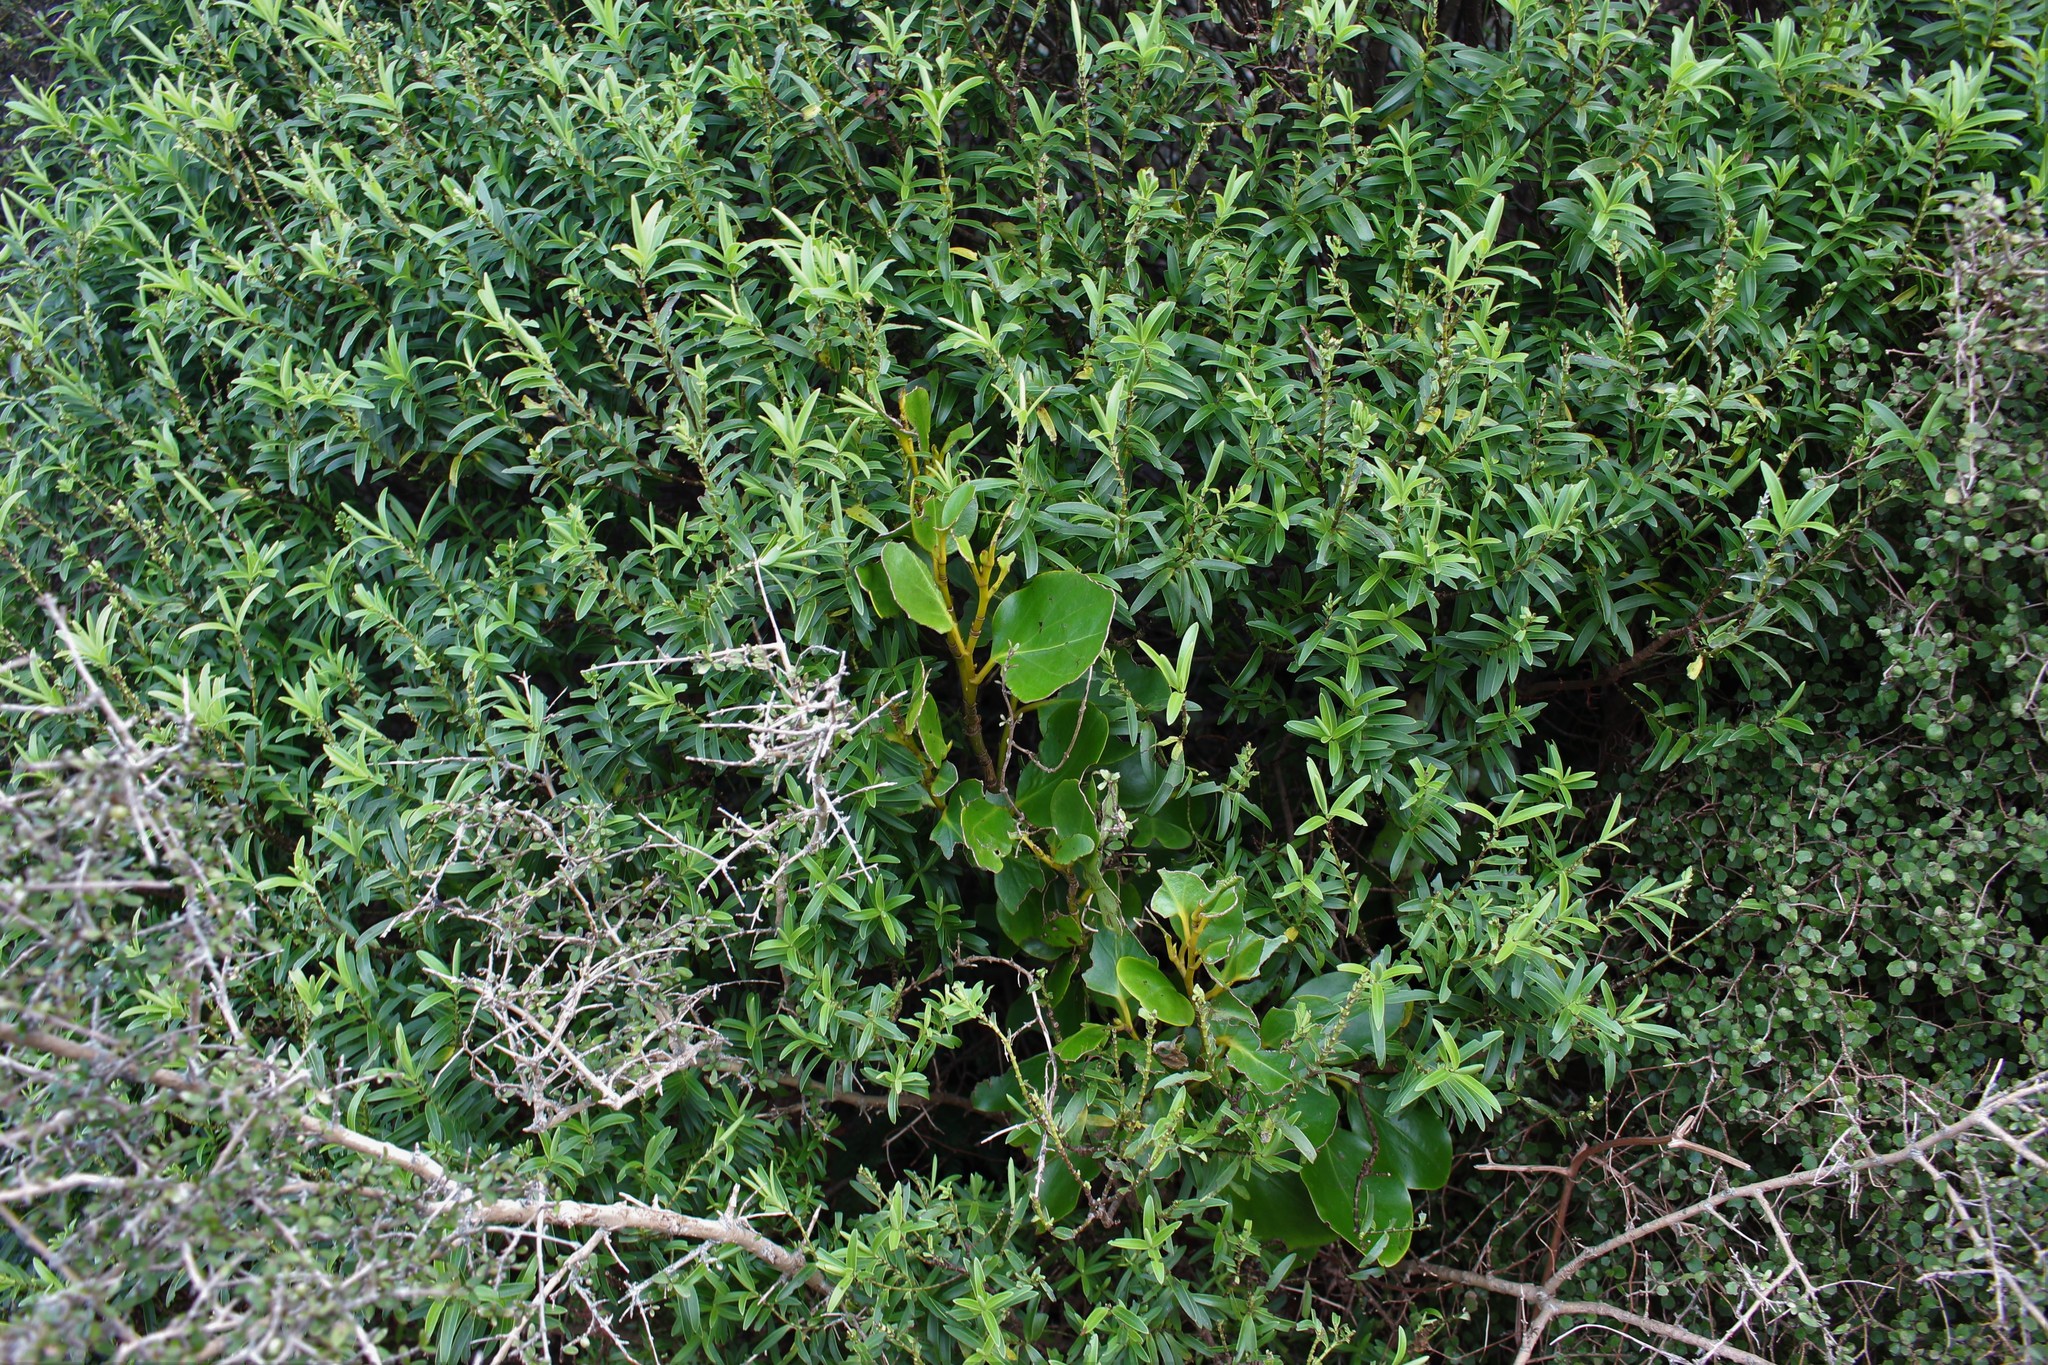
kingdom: Plantae
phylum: Tracheophyta
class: Magnoliopsida
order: Apiales
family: Griseliniaceae
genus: Griselinia
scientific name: Griselinia littoralis
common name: New zealand broadleaf
